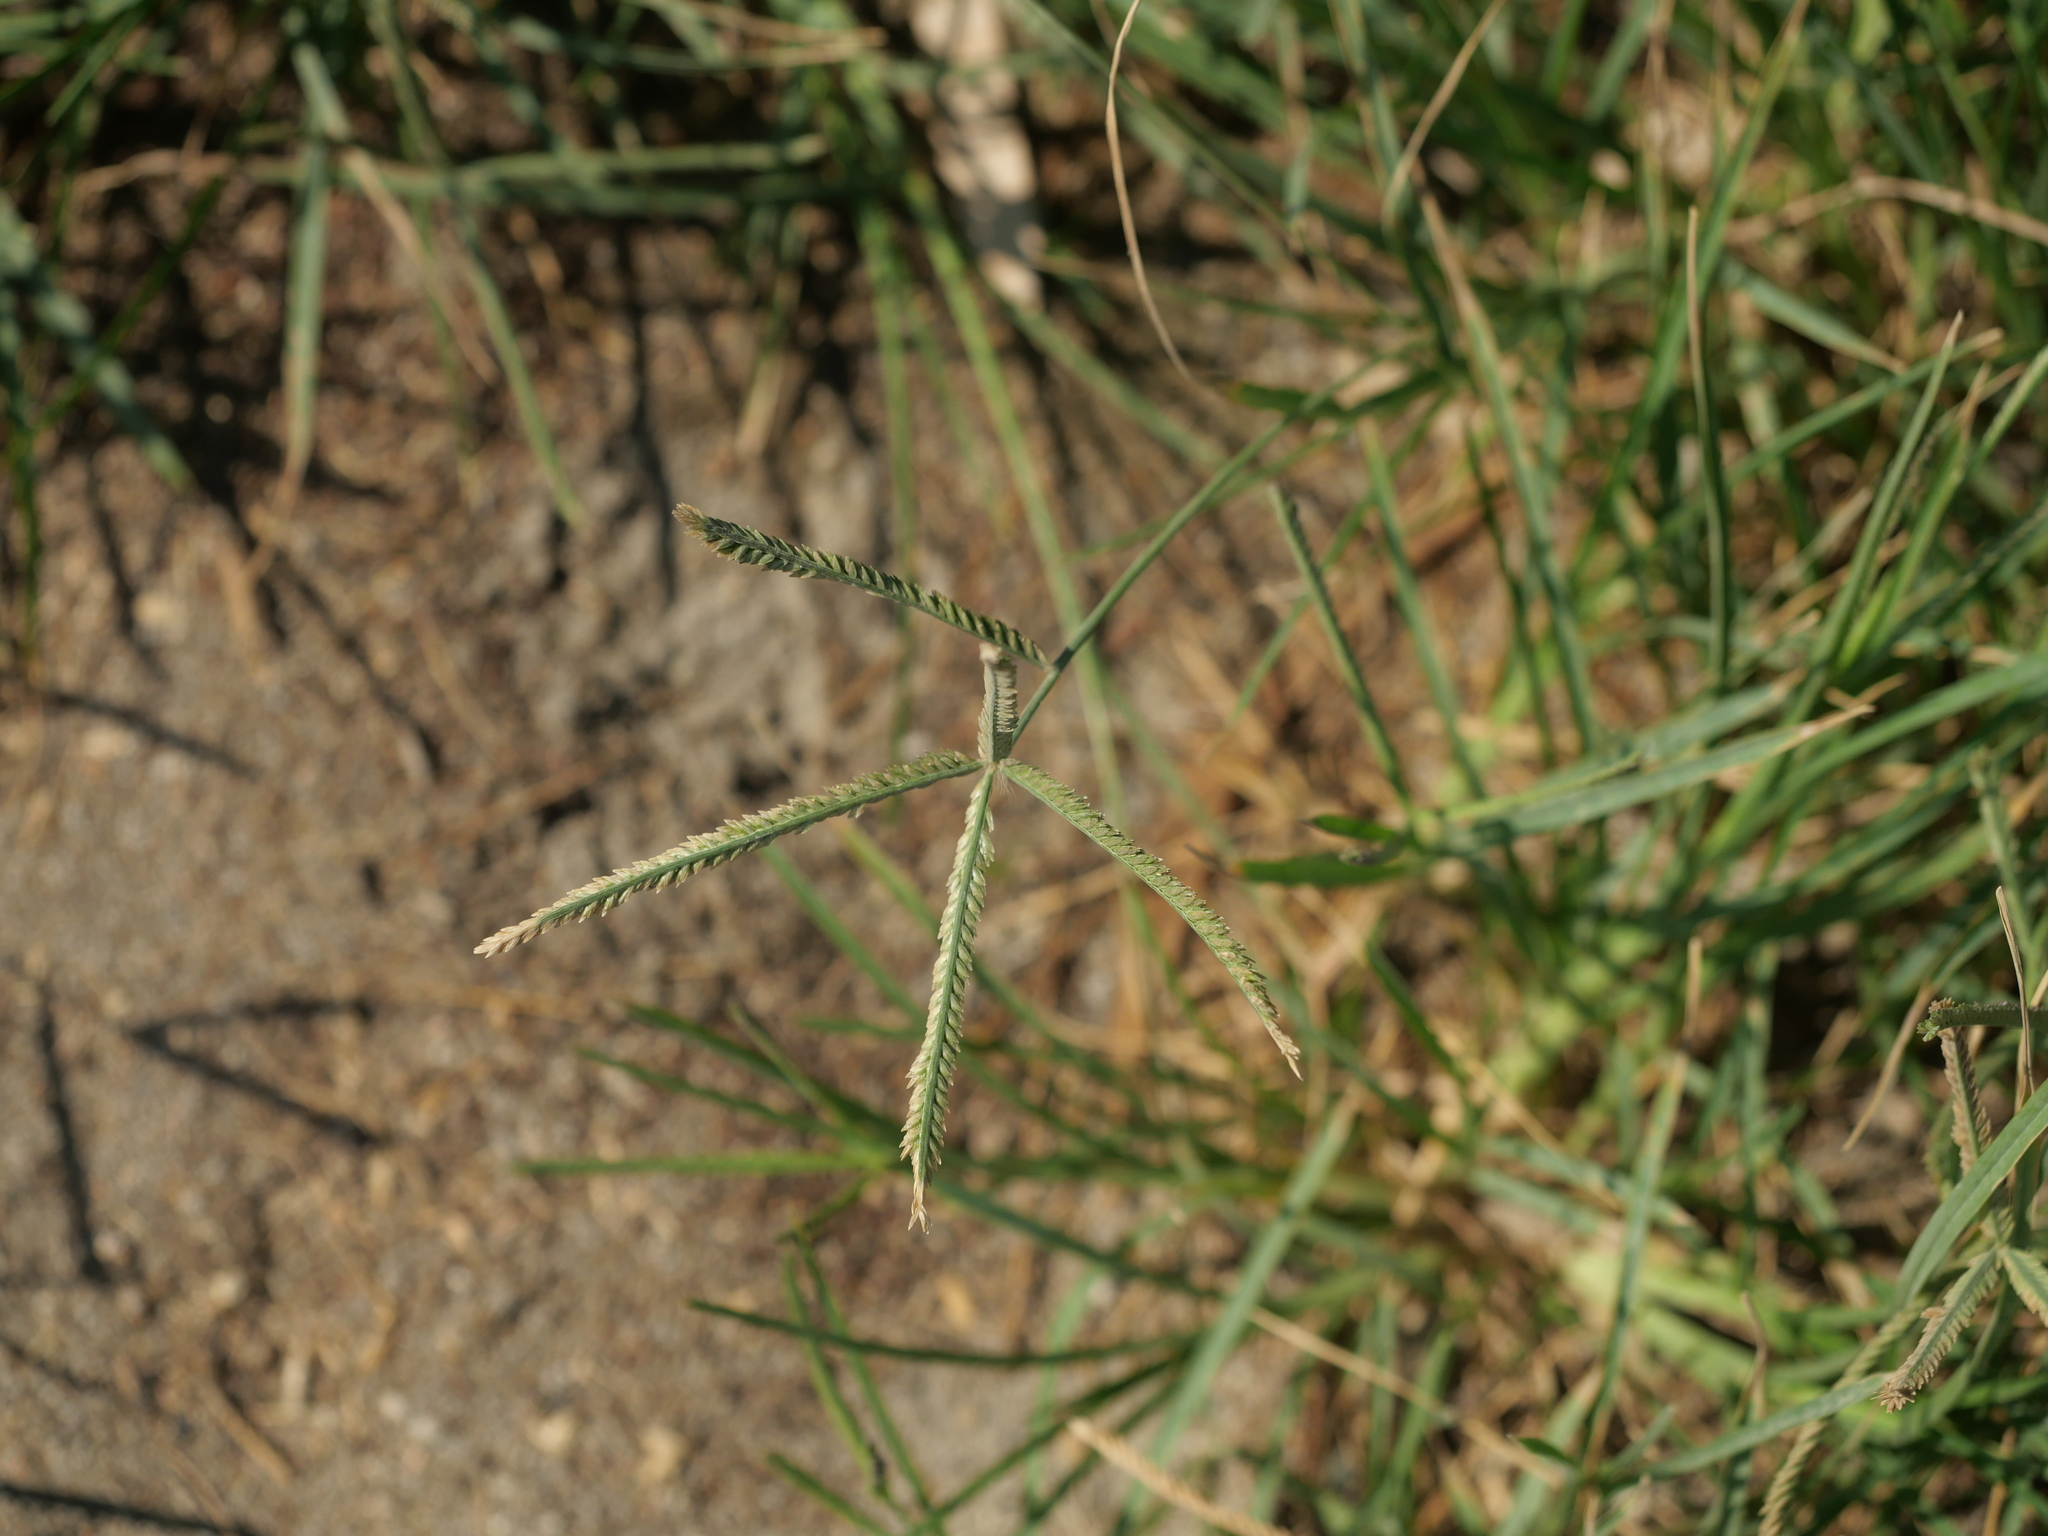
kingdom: Plantae
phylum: Tracheophyta
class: Liliopsida
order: Poales
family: Poaceae
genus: Eleusine
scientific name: Eleusine indica
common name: Yard-grass
